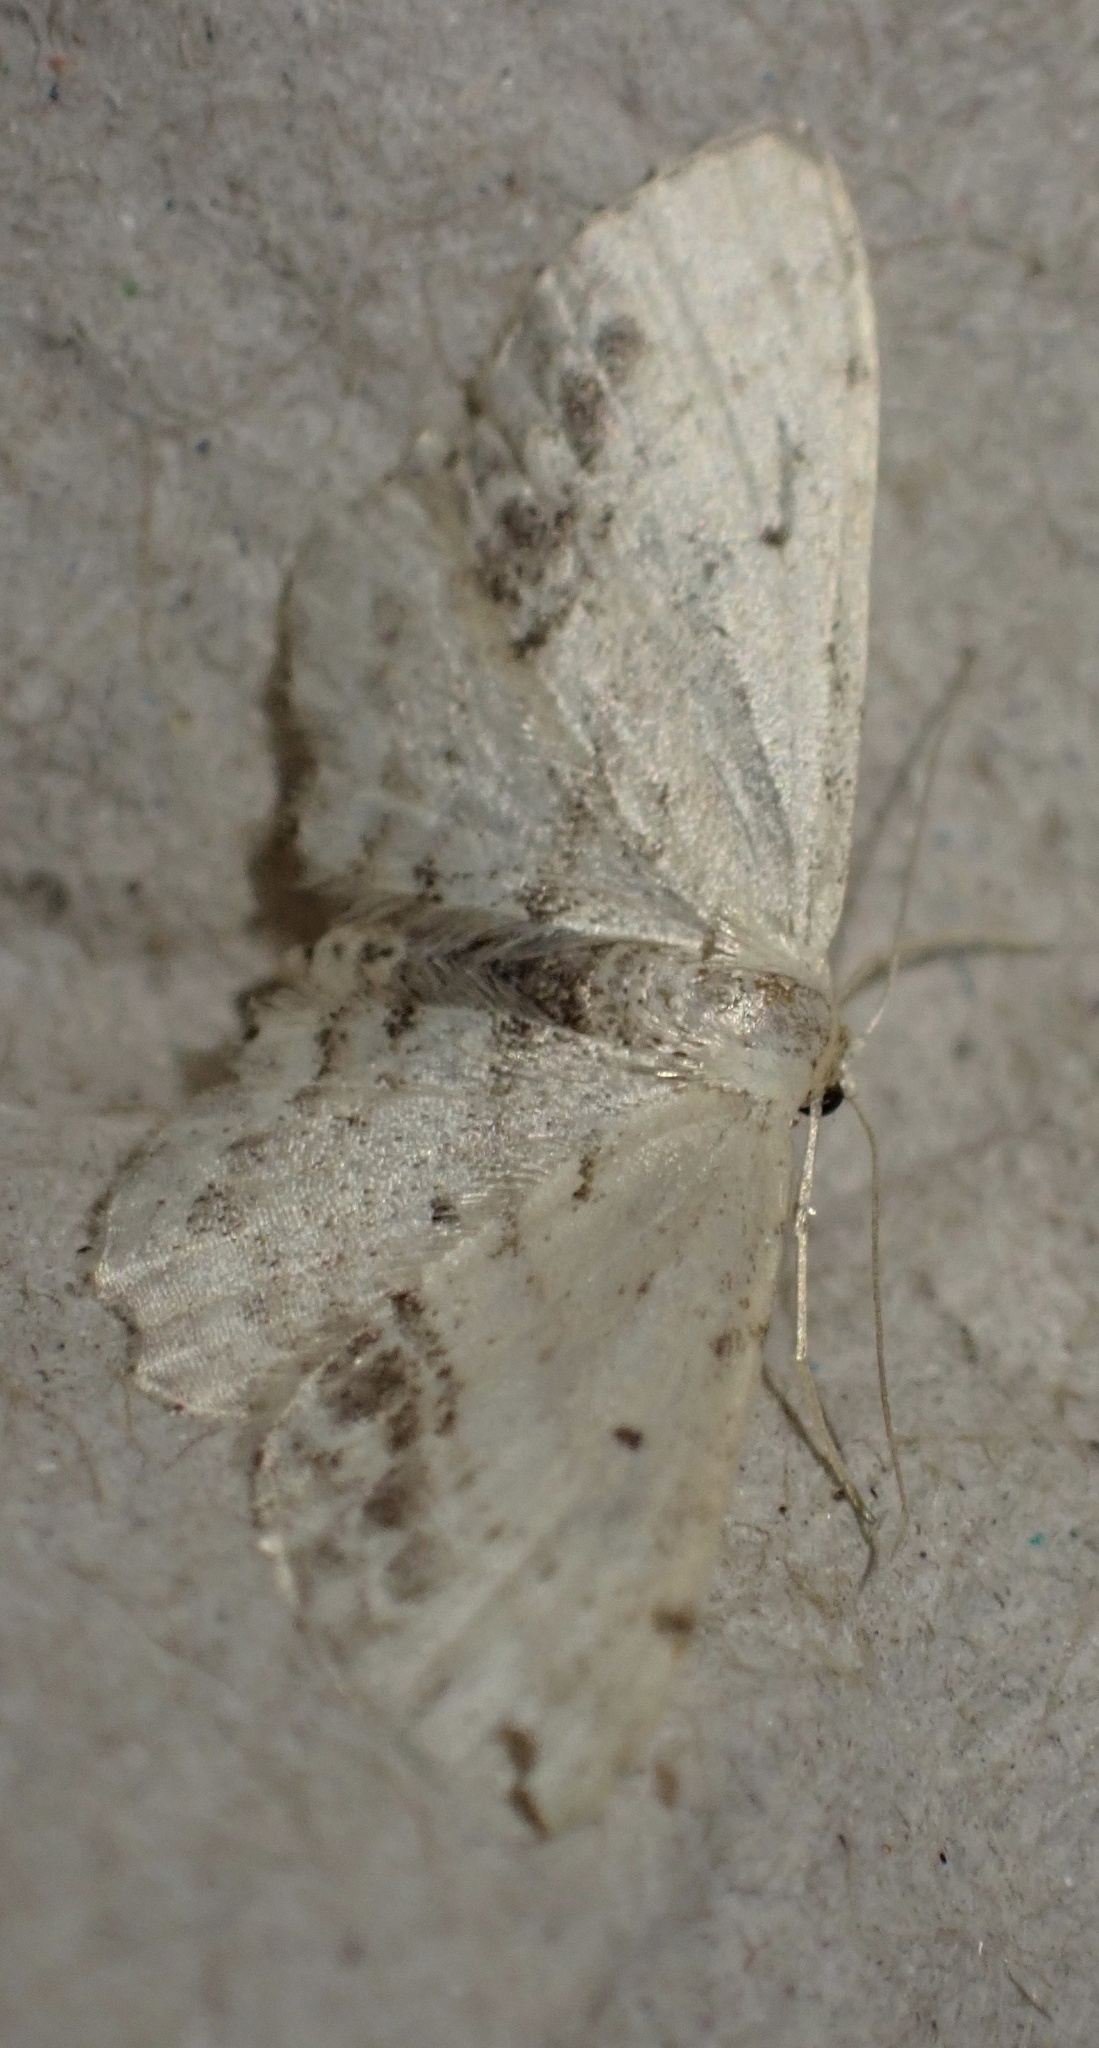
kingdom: Animalia
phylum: Arthropoda
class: Insecta
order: Lepidoptera
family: Geometridae
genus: Idaea
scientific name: Idaea dimidiata
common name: Single-dotted wave
